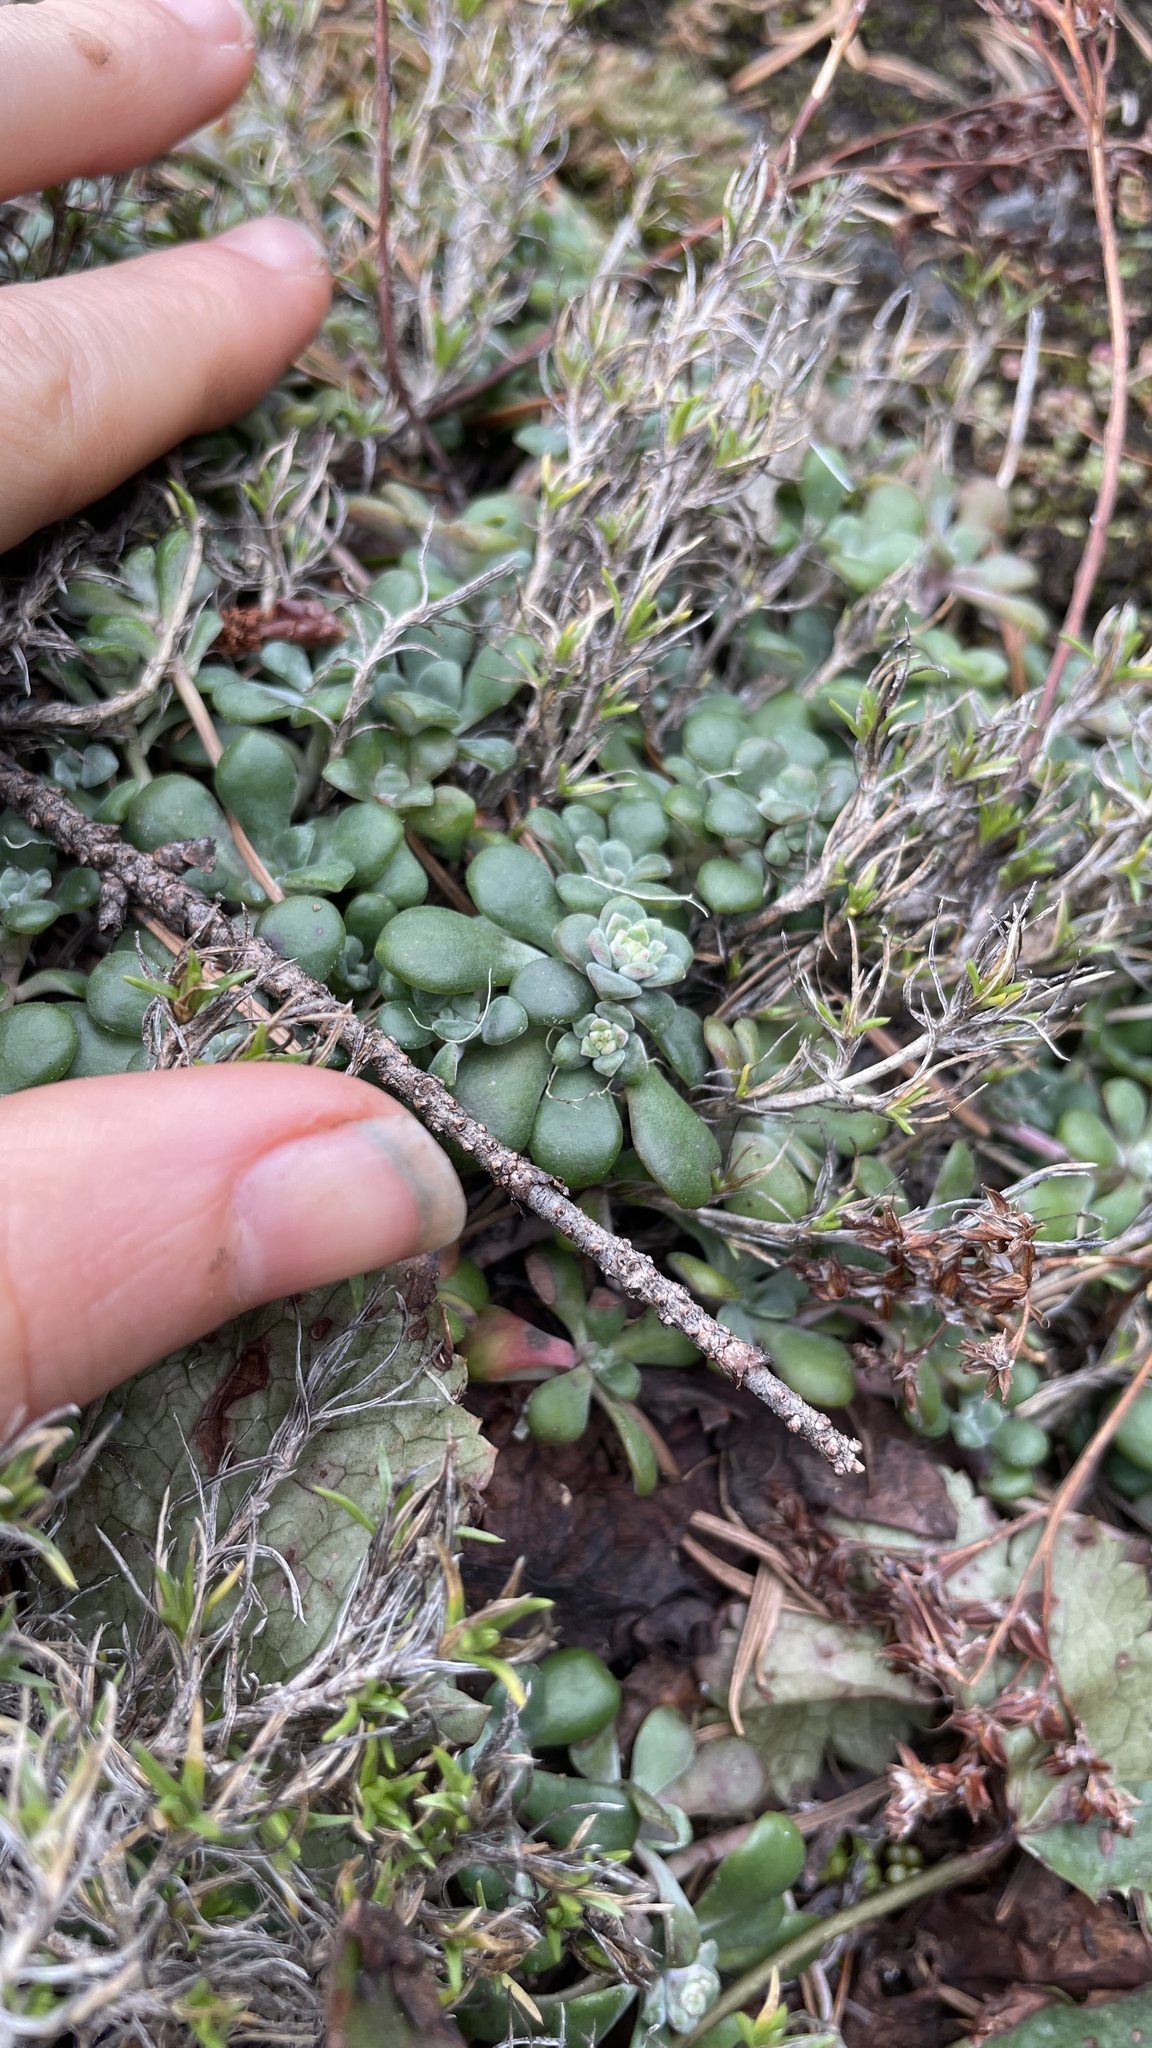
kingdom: Plantae
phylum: Tracheophyta
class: Magnoliopsida
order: Saxifragales
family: Crassulaceae
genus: Sedum
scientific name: Sedum spathulifolium
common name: Colorado stonecrop
